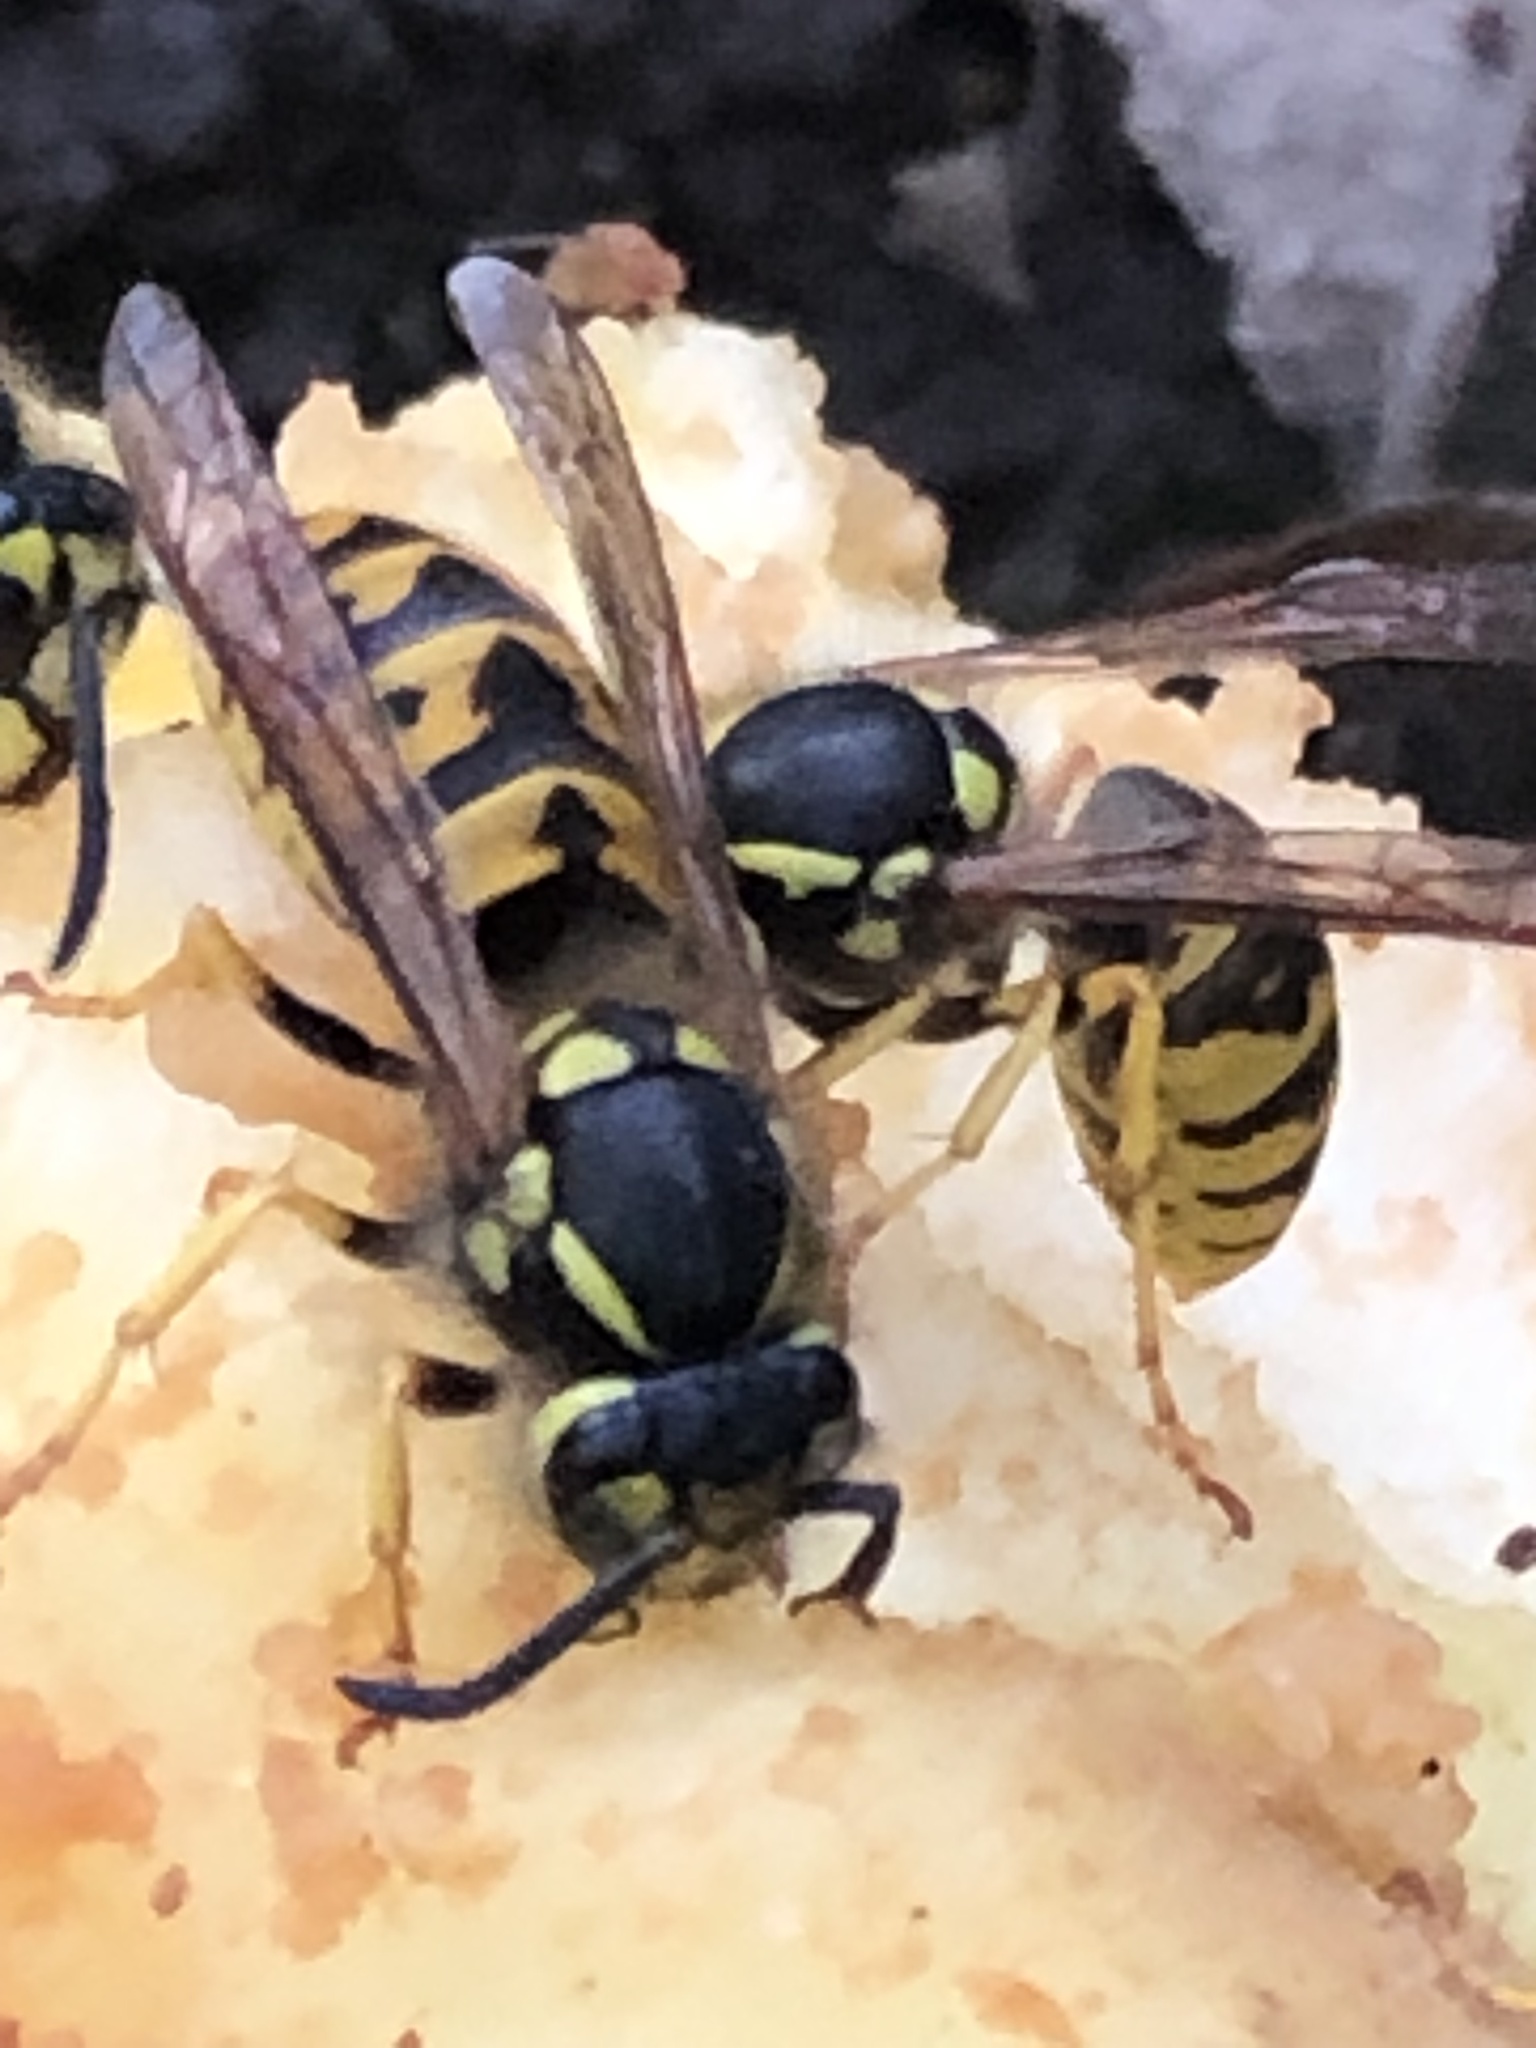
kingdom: Animalia
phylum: Arthropoda
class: Insecta
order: Hymenoptera
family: Vespidae
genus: Vespula
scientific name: Vespula germanica
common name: German wasp
